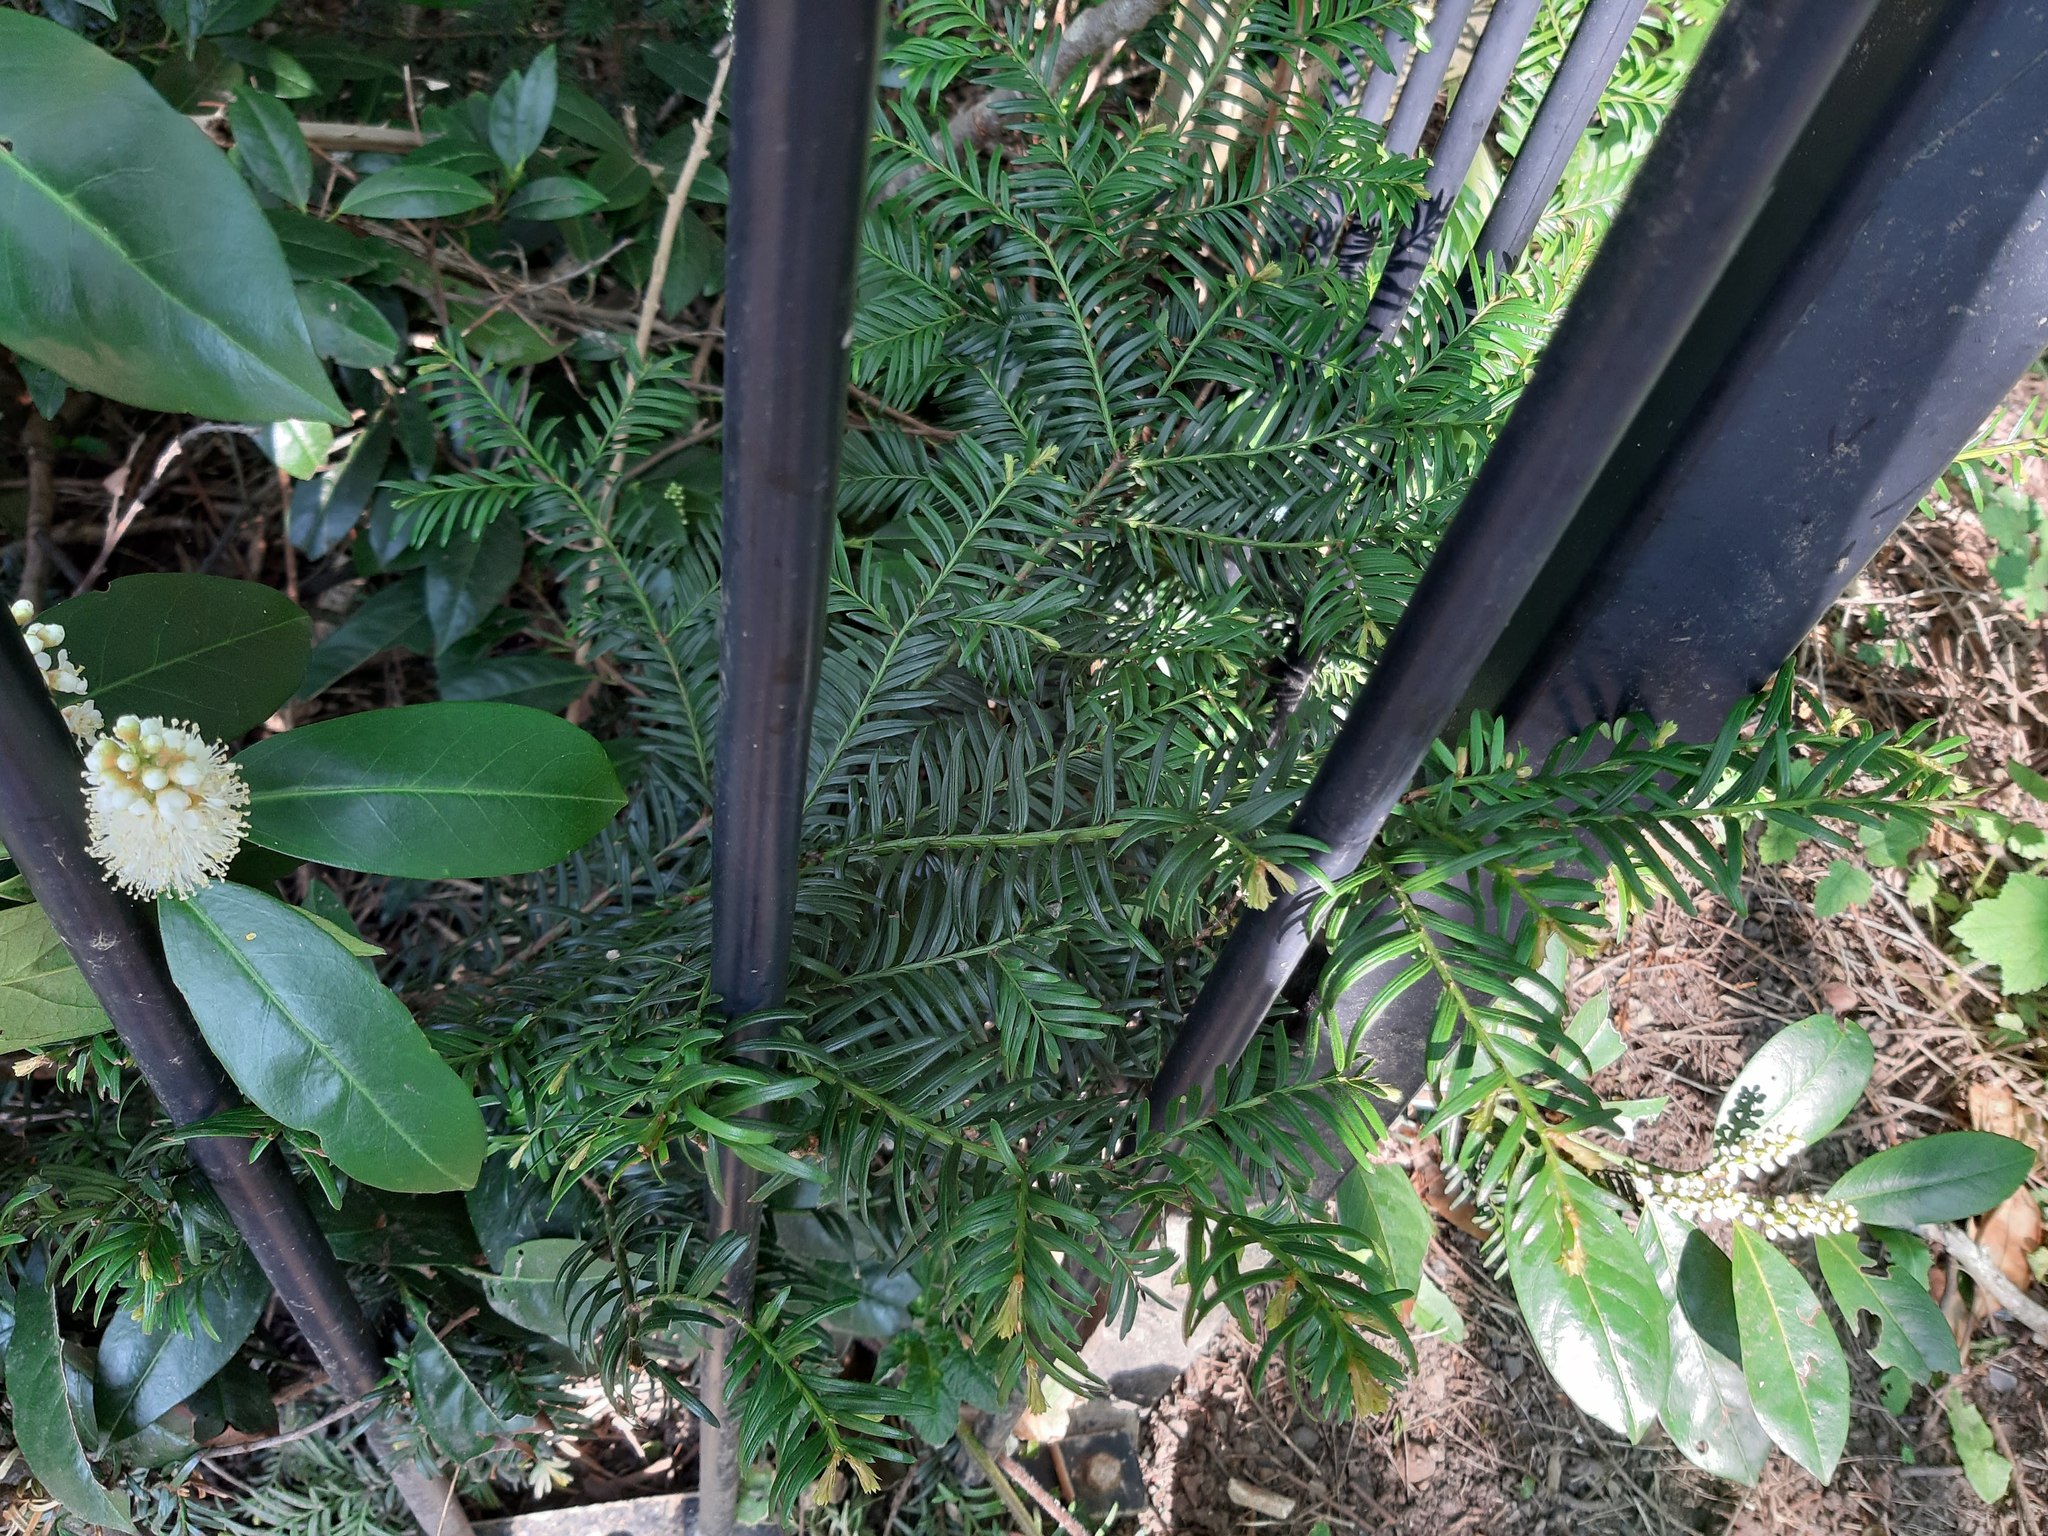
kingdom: Plantae
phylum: Tracheophyta
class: Pinopsida
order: Pinales
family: Taxaceae
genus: Taxus
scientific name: Taxus baccata
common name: Yew
